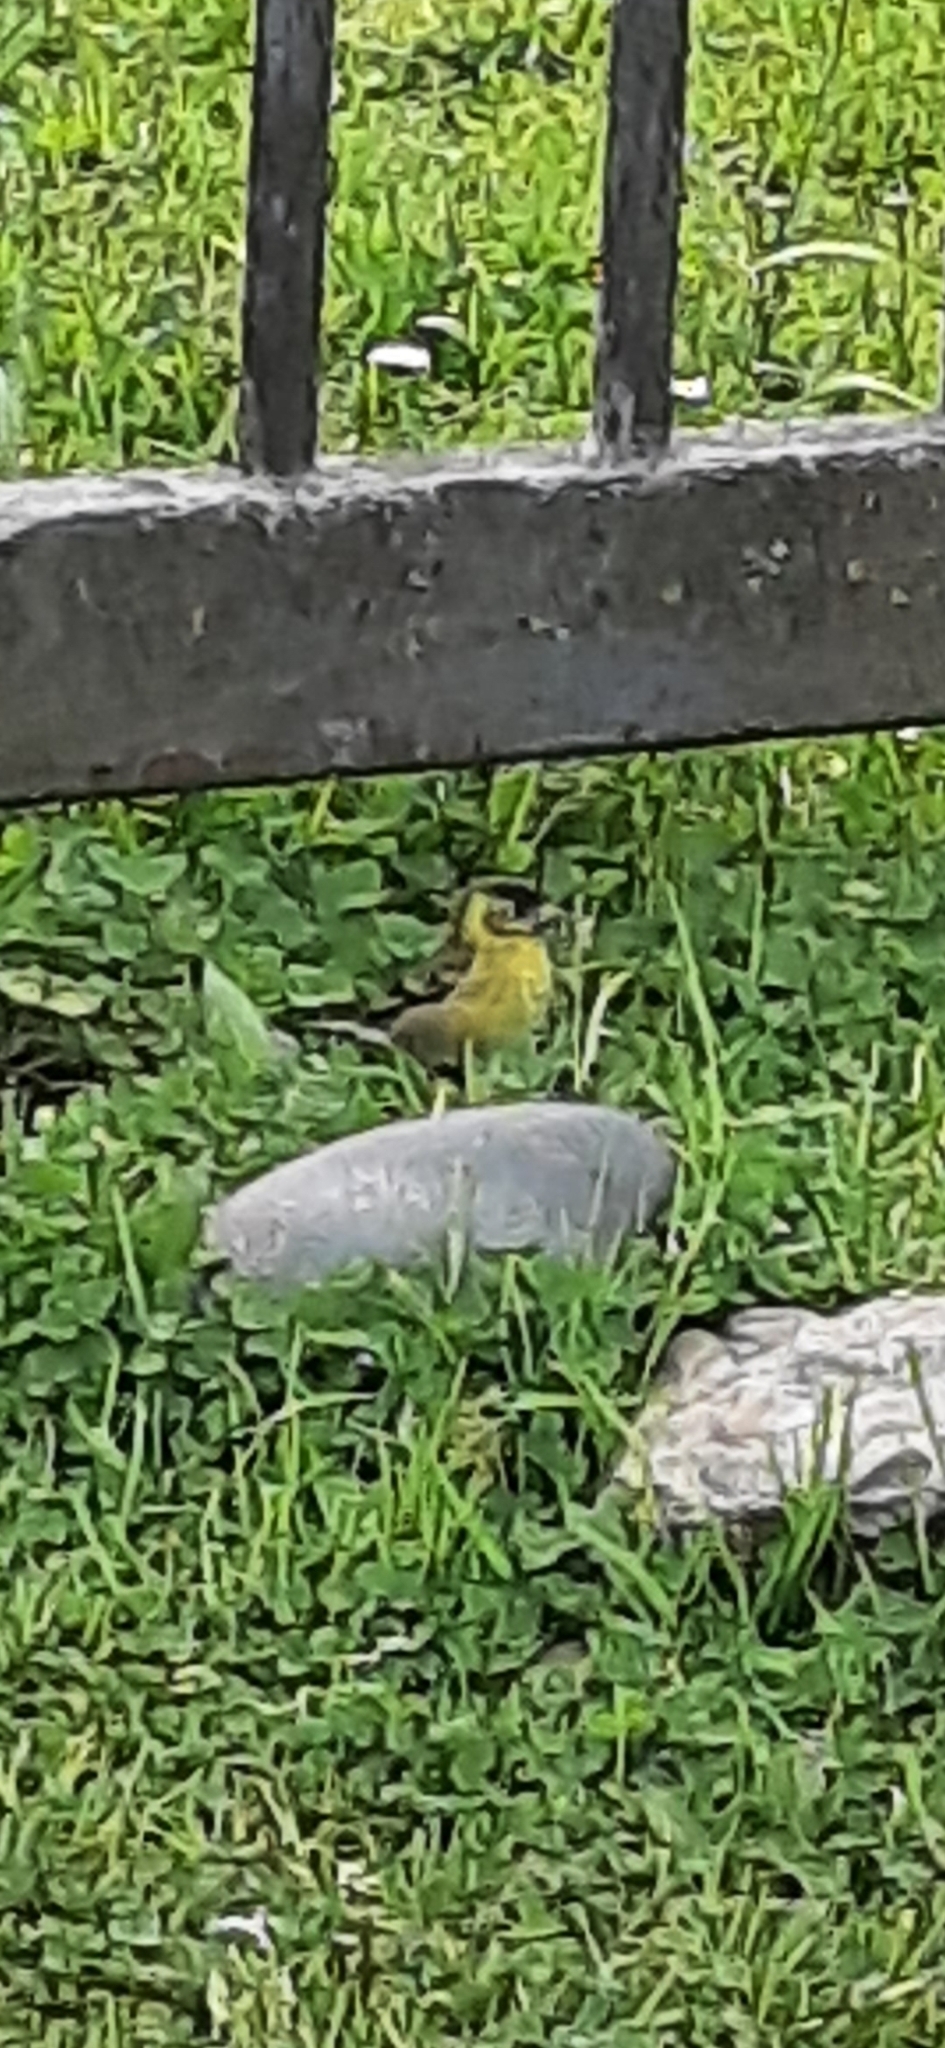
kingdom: Animalia
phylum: Chordata
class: Aves
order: Passeriformes
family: Fringillidae
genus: Spinus
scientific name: Spinus barbatus
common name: Black-chinned siskin
